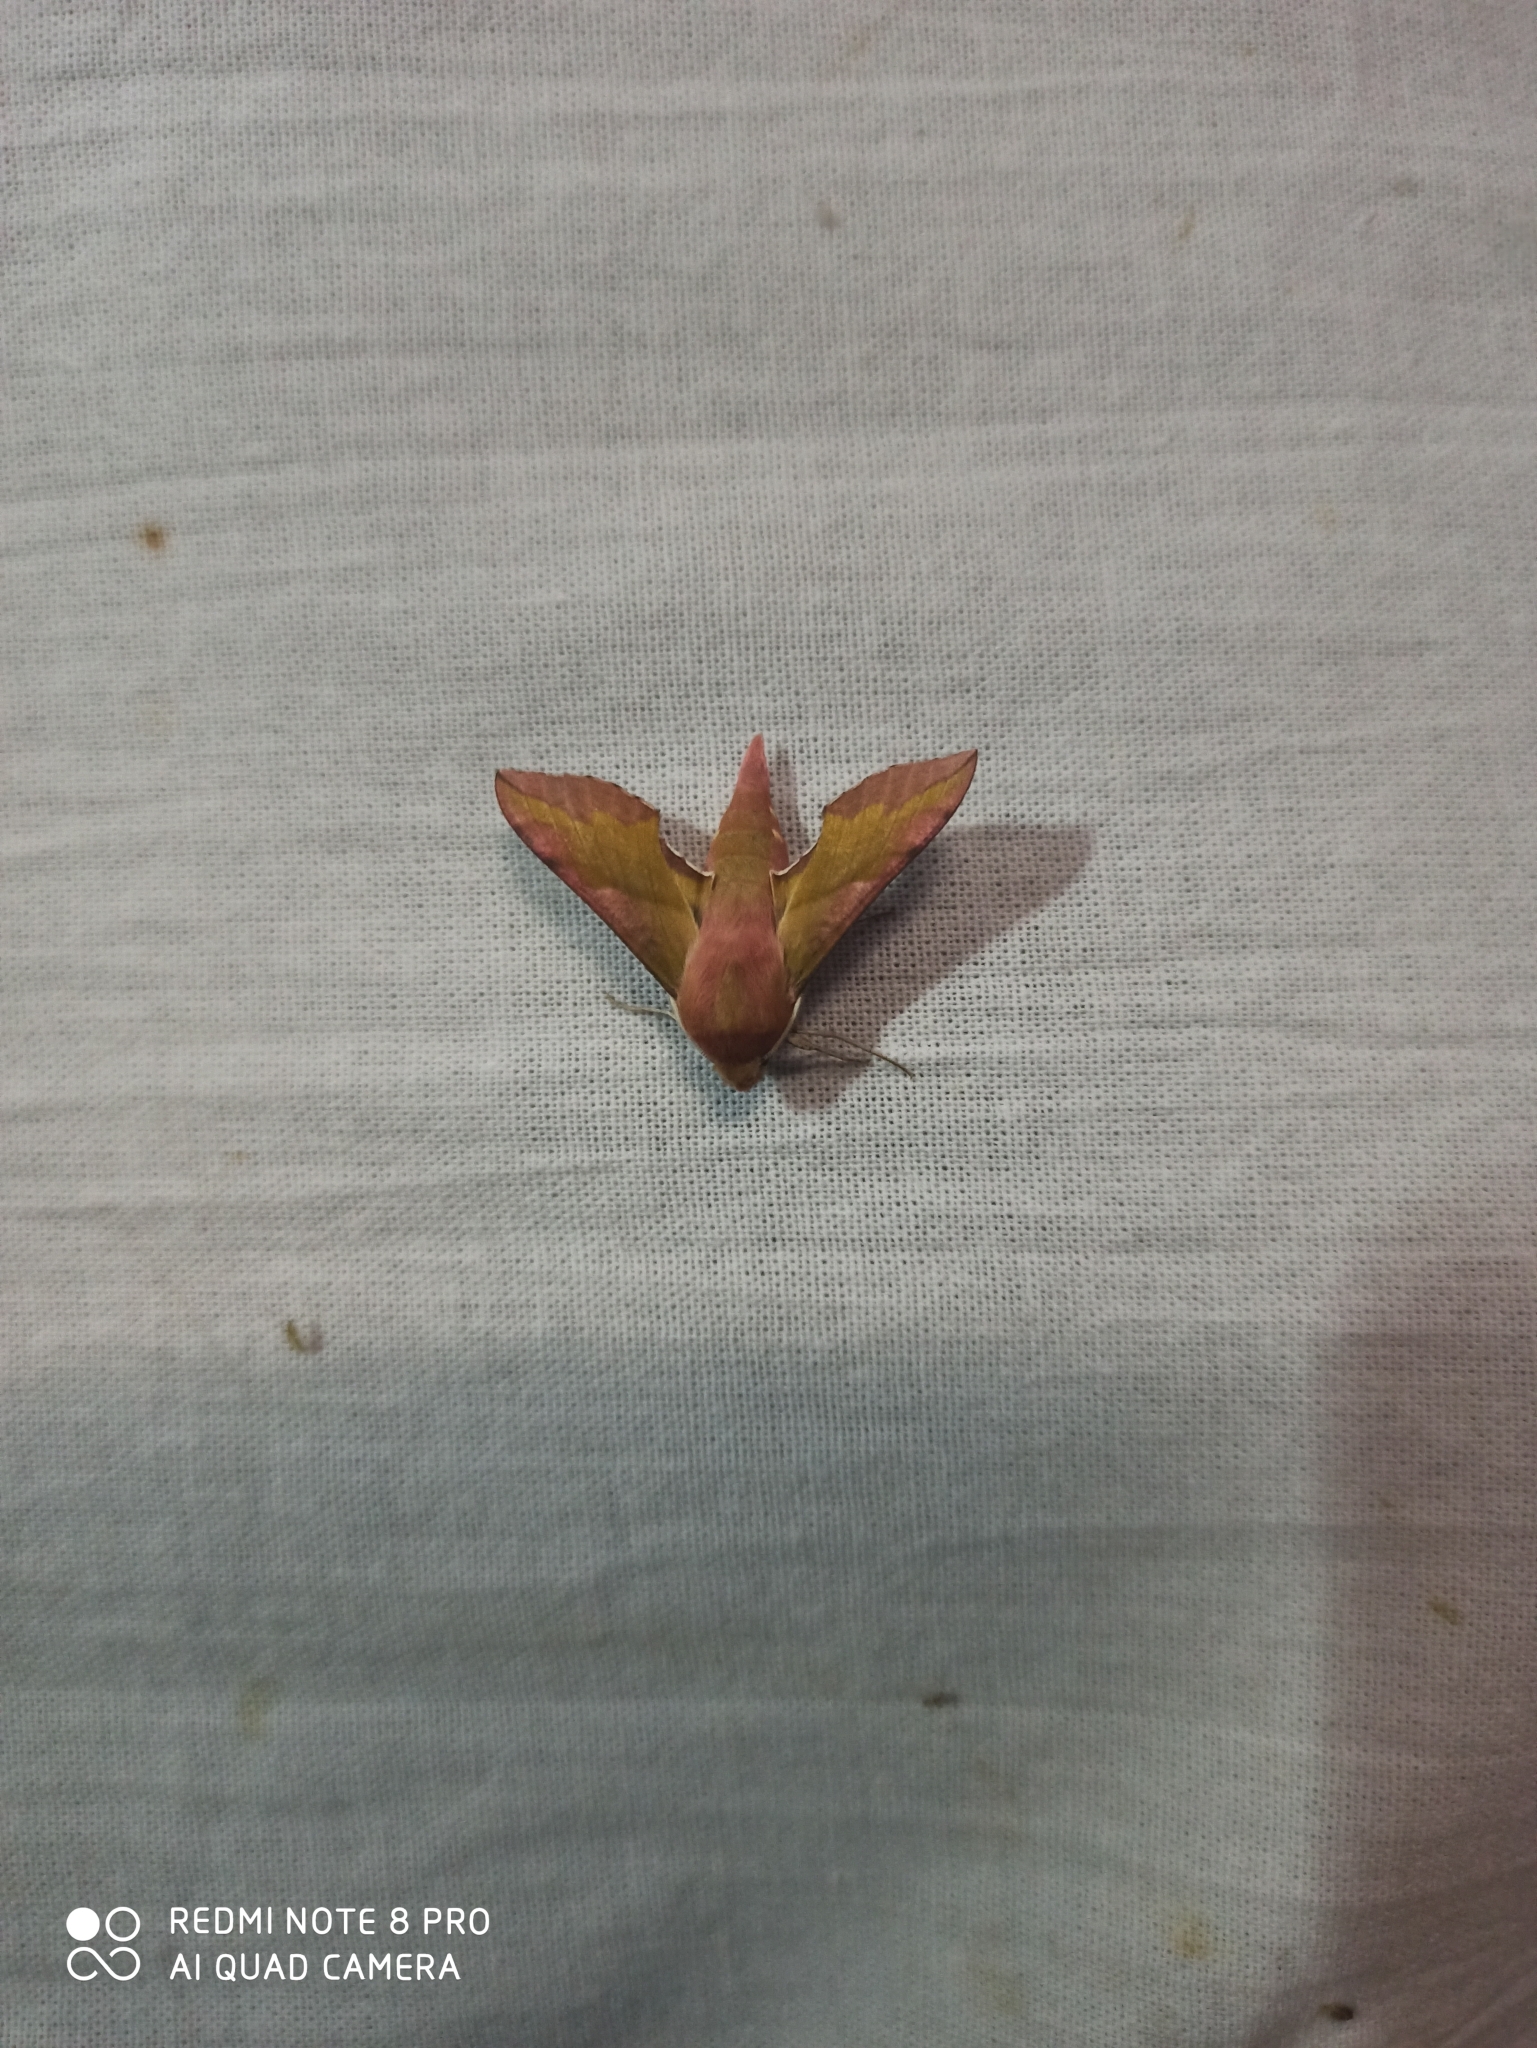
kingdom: Animalia
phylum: Arthropoda
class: Insecta
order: Lepidoptera
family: Sphingidae
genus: Deilephila
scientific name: Deilephila porcellus
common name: Small elephant hawk-moth
